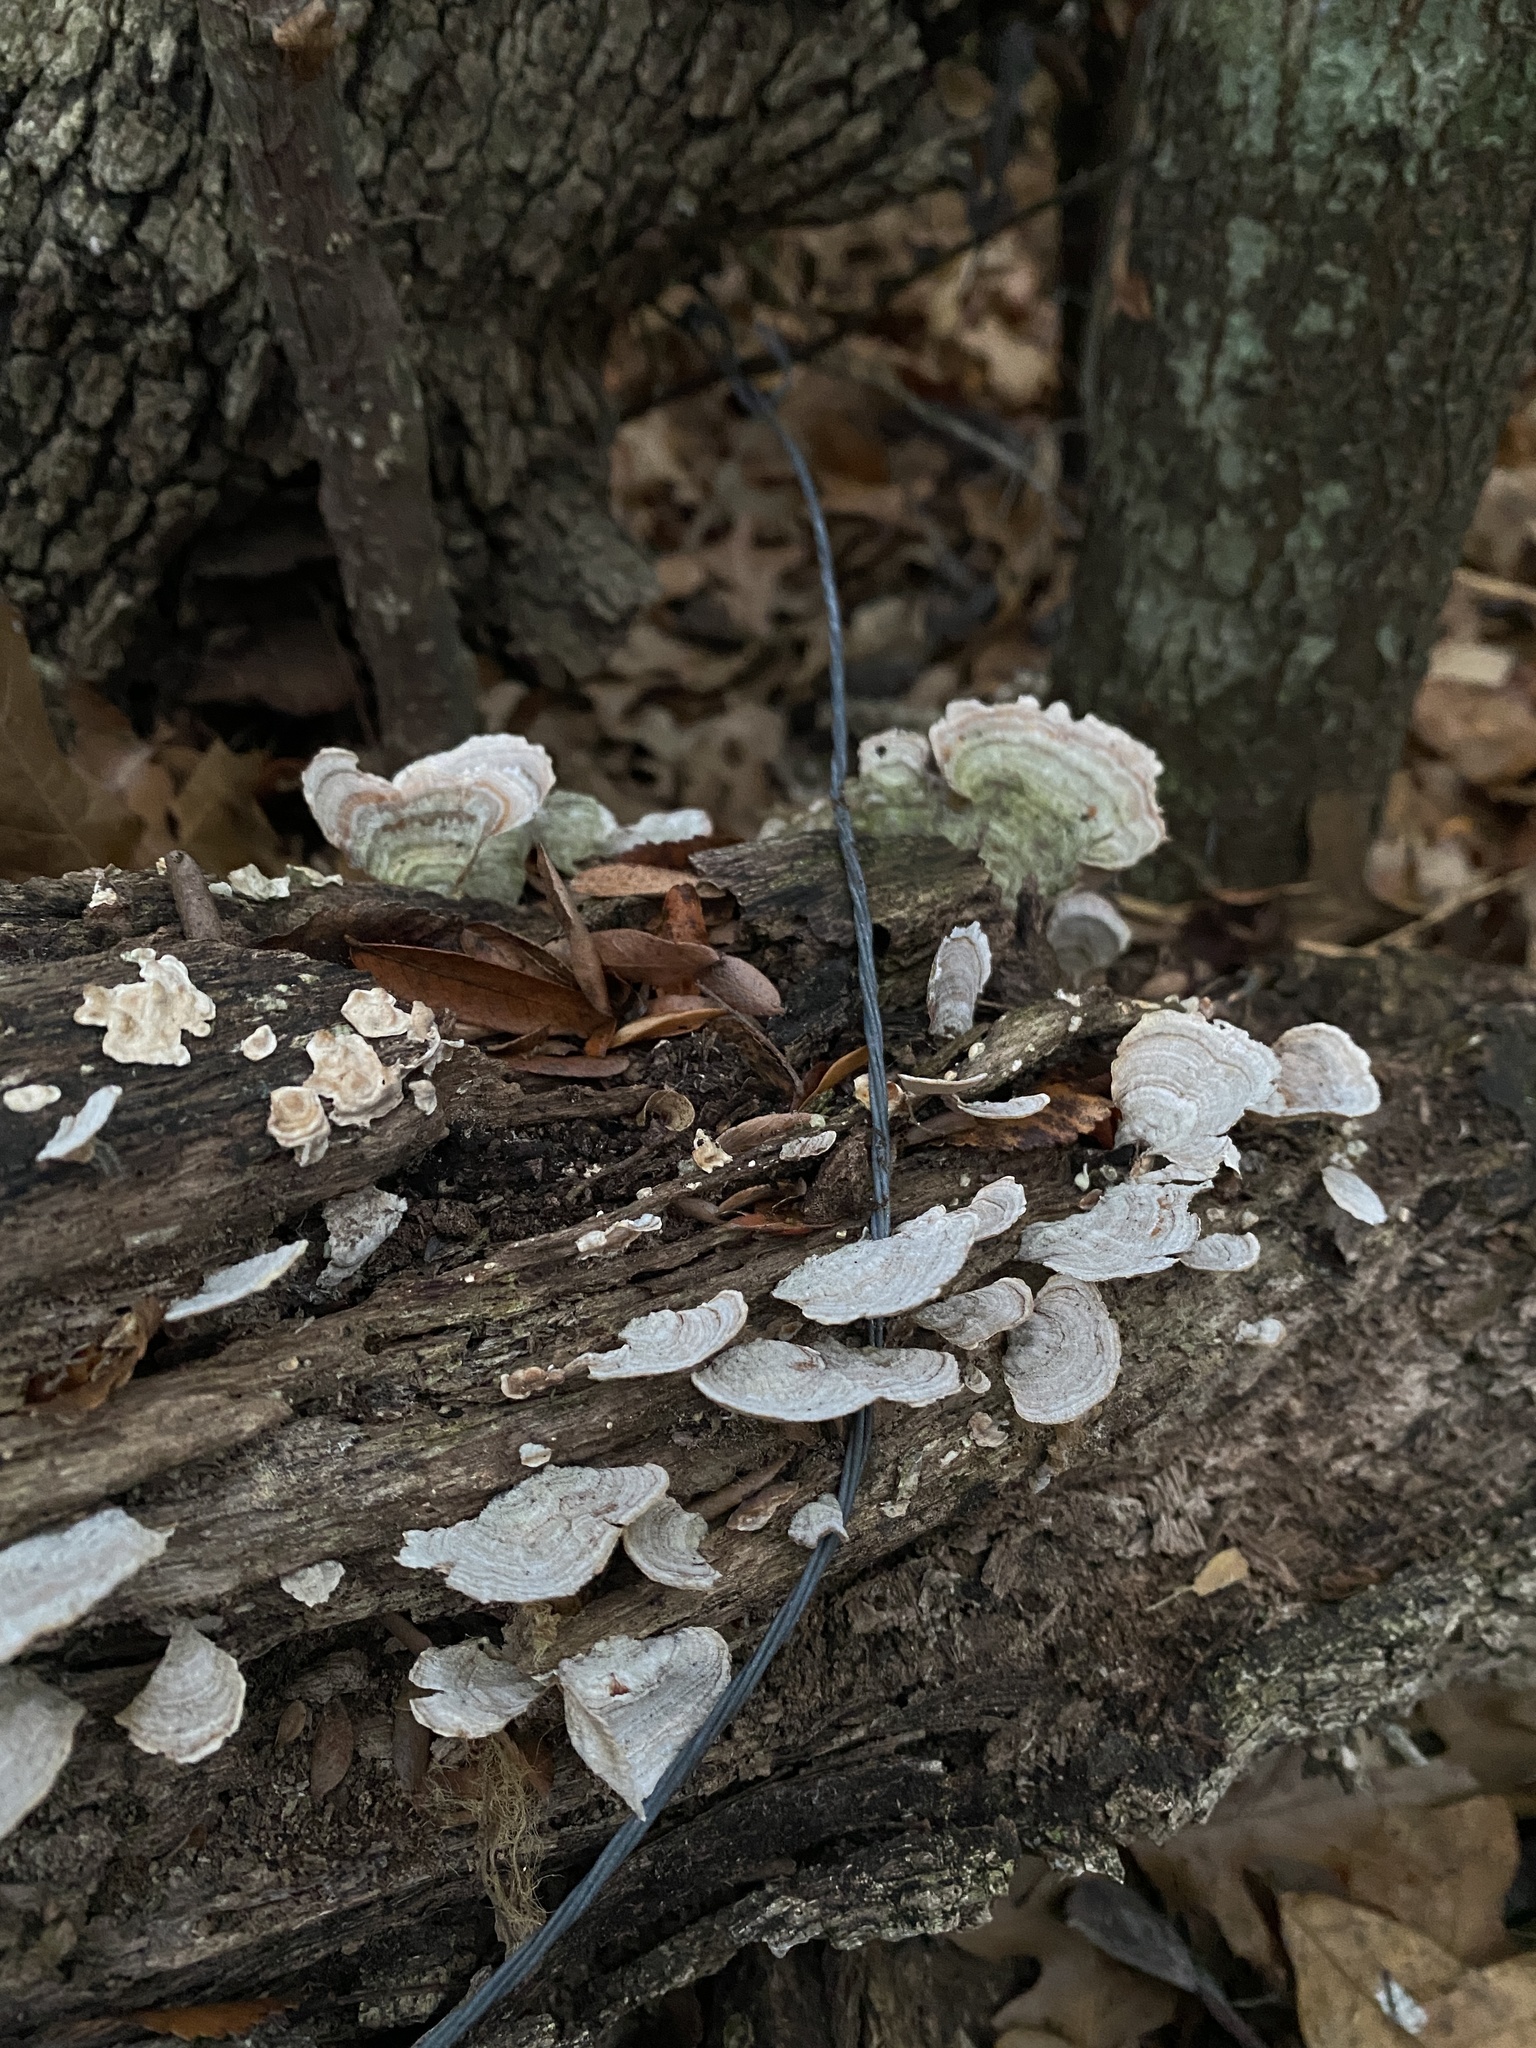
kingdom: Fungi
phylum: Basidiomycota
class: Agaricomycetes
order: Russulales
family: Stereaceae
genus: Stereum
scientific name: Stereum ostrea
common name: False turkeytail
